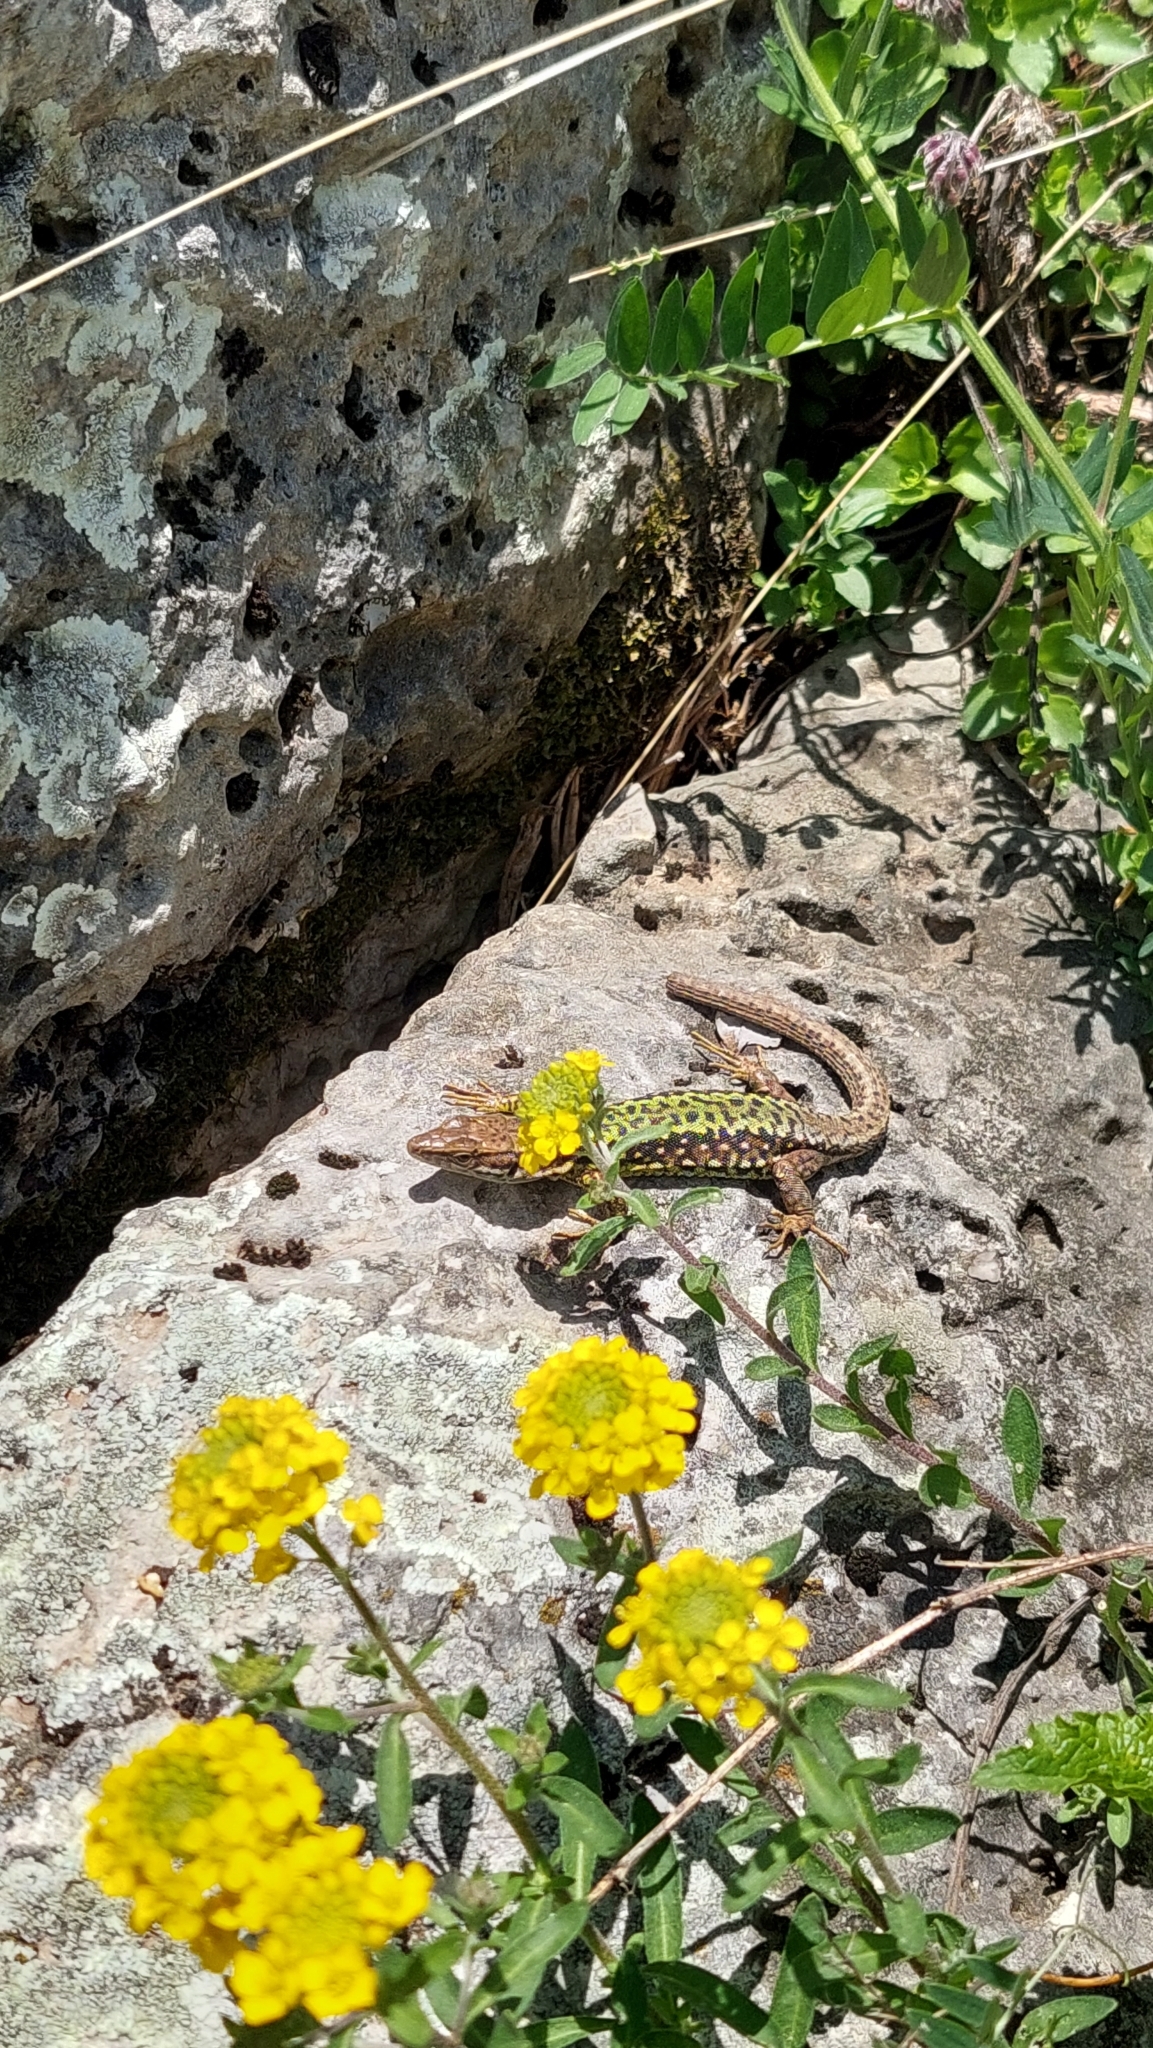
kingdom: Animalia
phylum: Chordata
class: Squamata
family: Lacertidae
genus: Darevskia
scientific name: Darevskia brauneri
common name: Brauner's rock lizard
